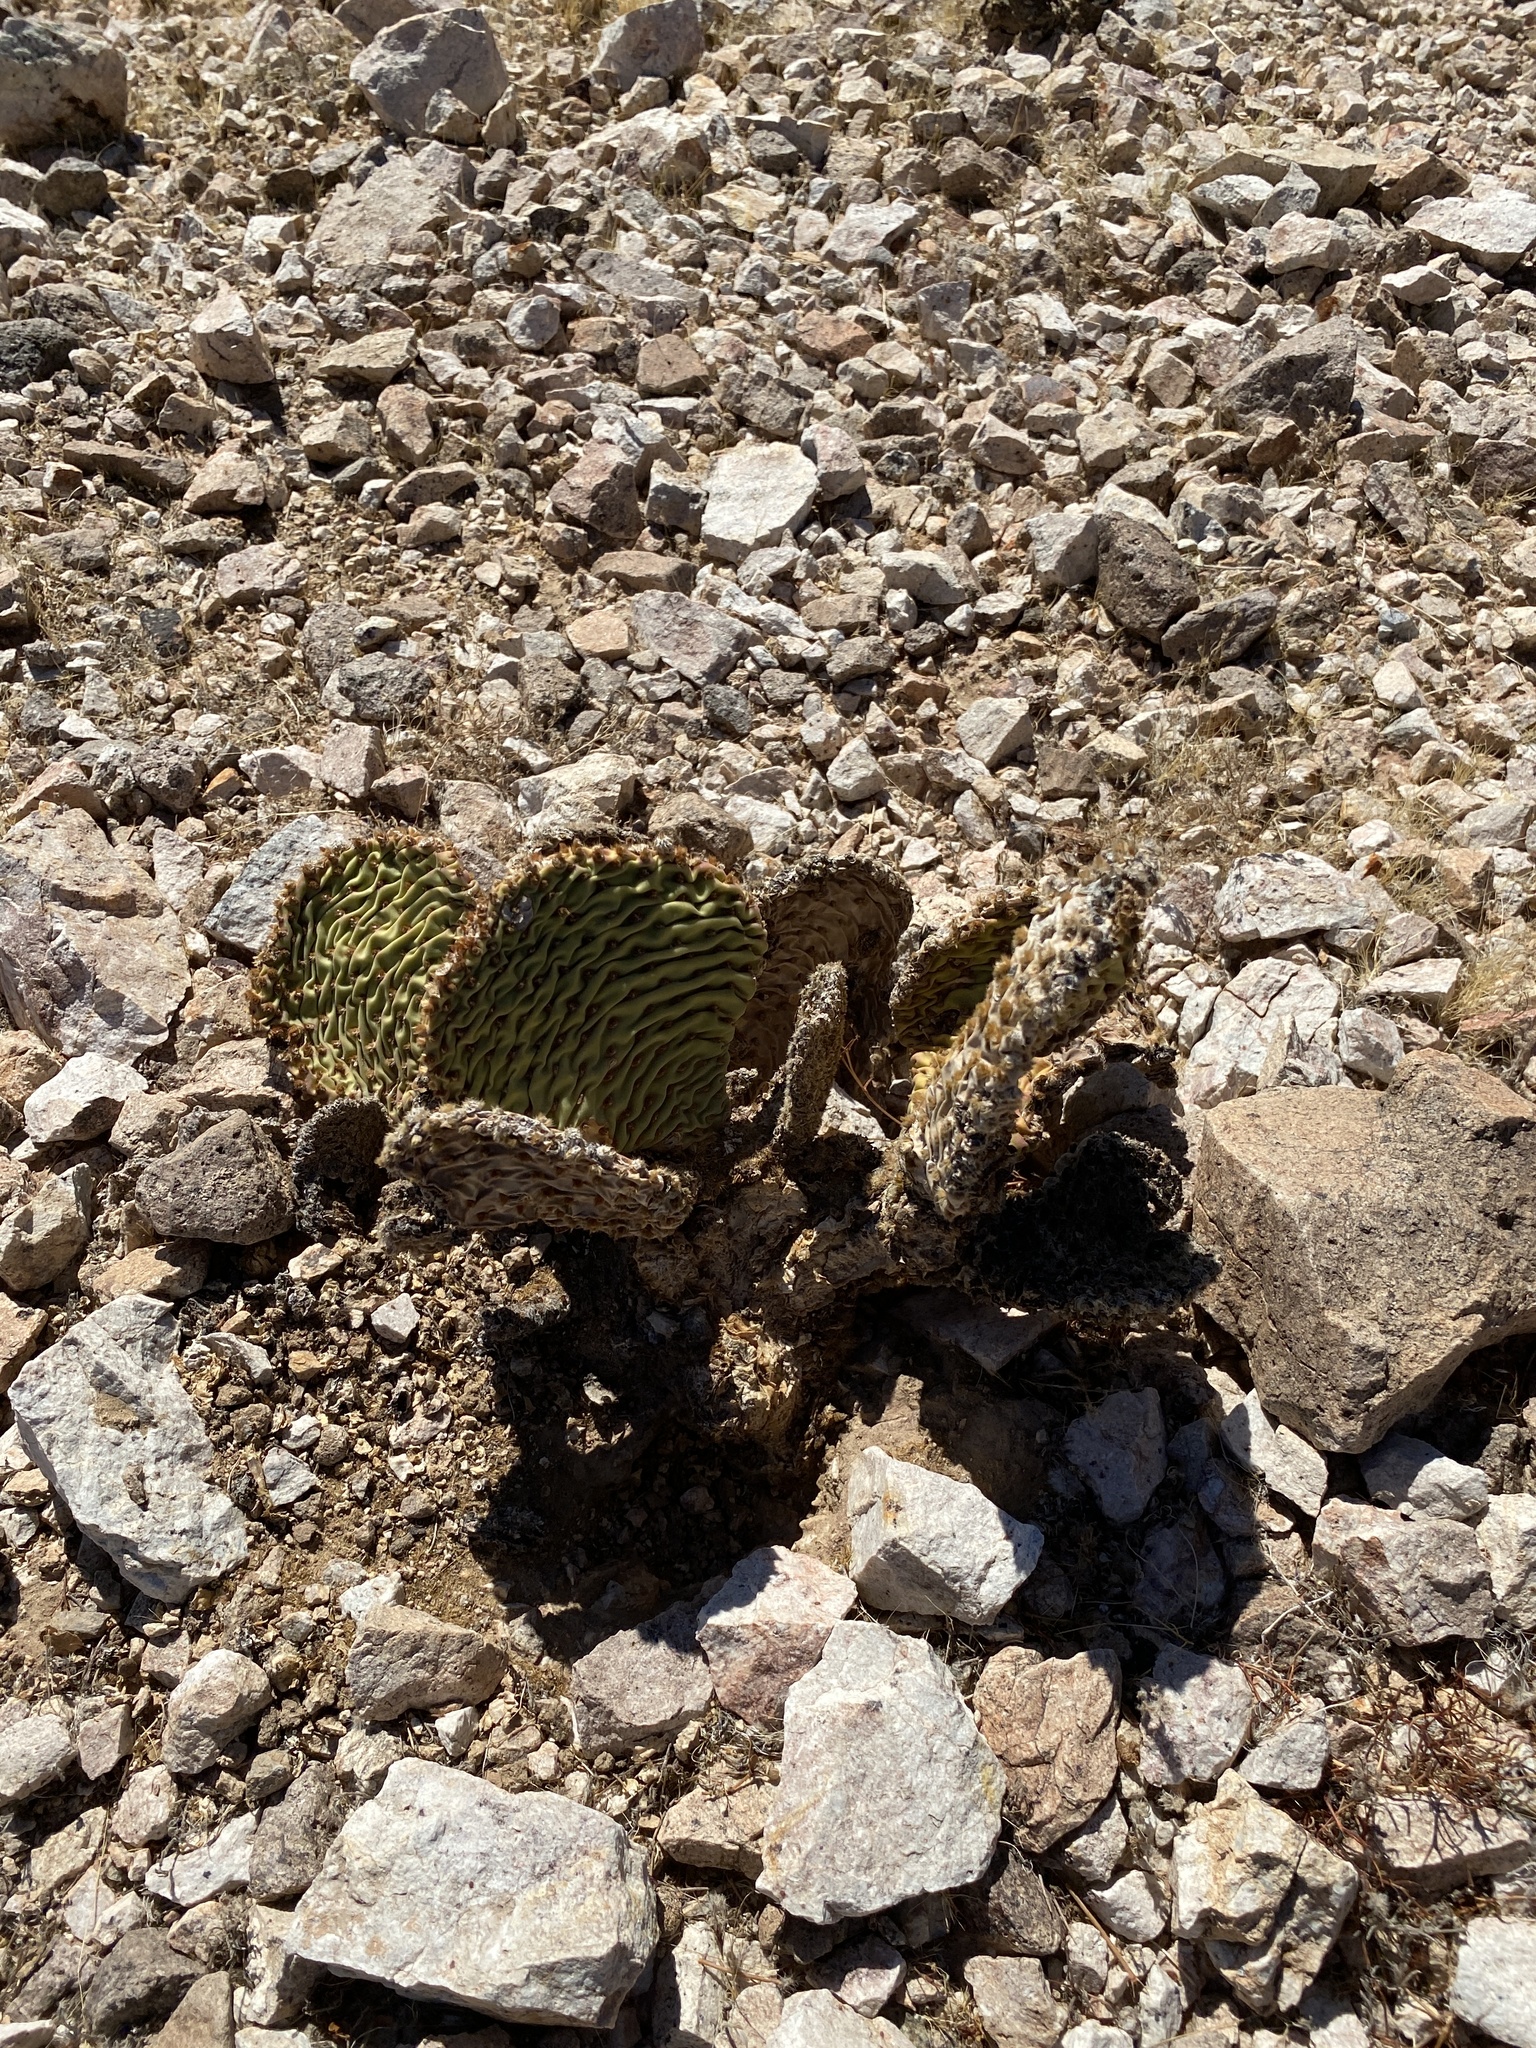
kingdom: Plantae
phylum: Tracheophyta
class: Magnoliopsida
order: Caryophyllales
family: Cactaceae
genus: Opuntia
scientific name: Opuntia basilaris
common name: Beavertail prickly-pear
